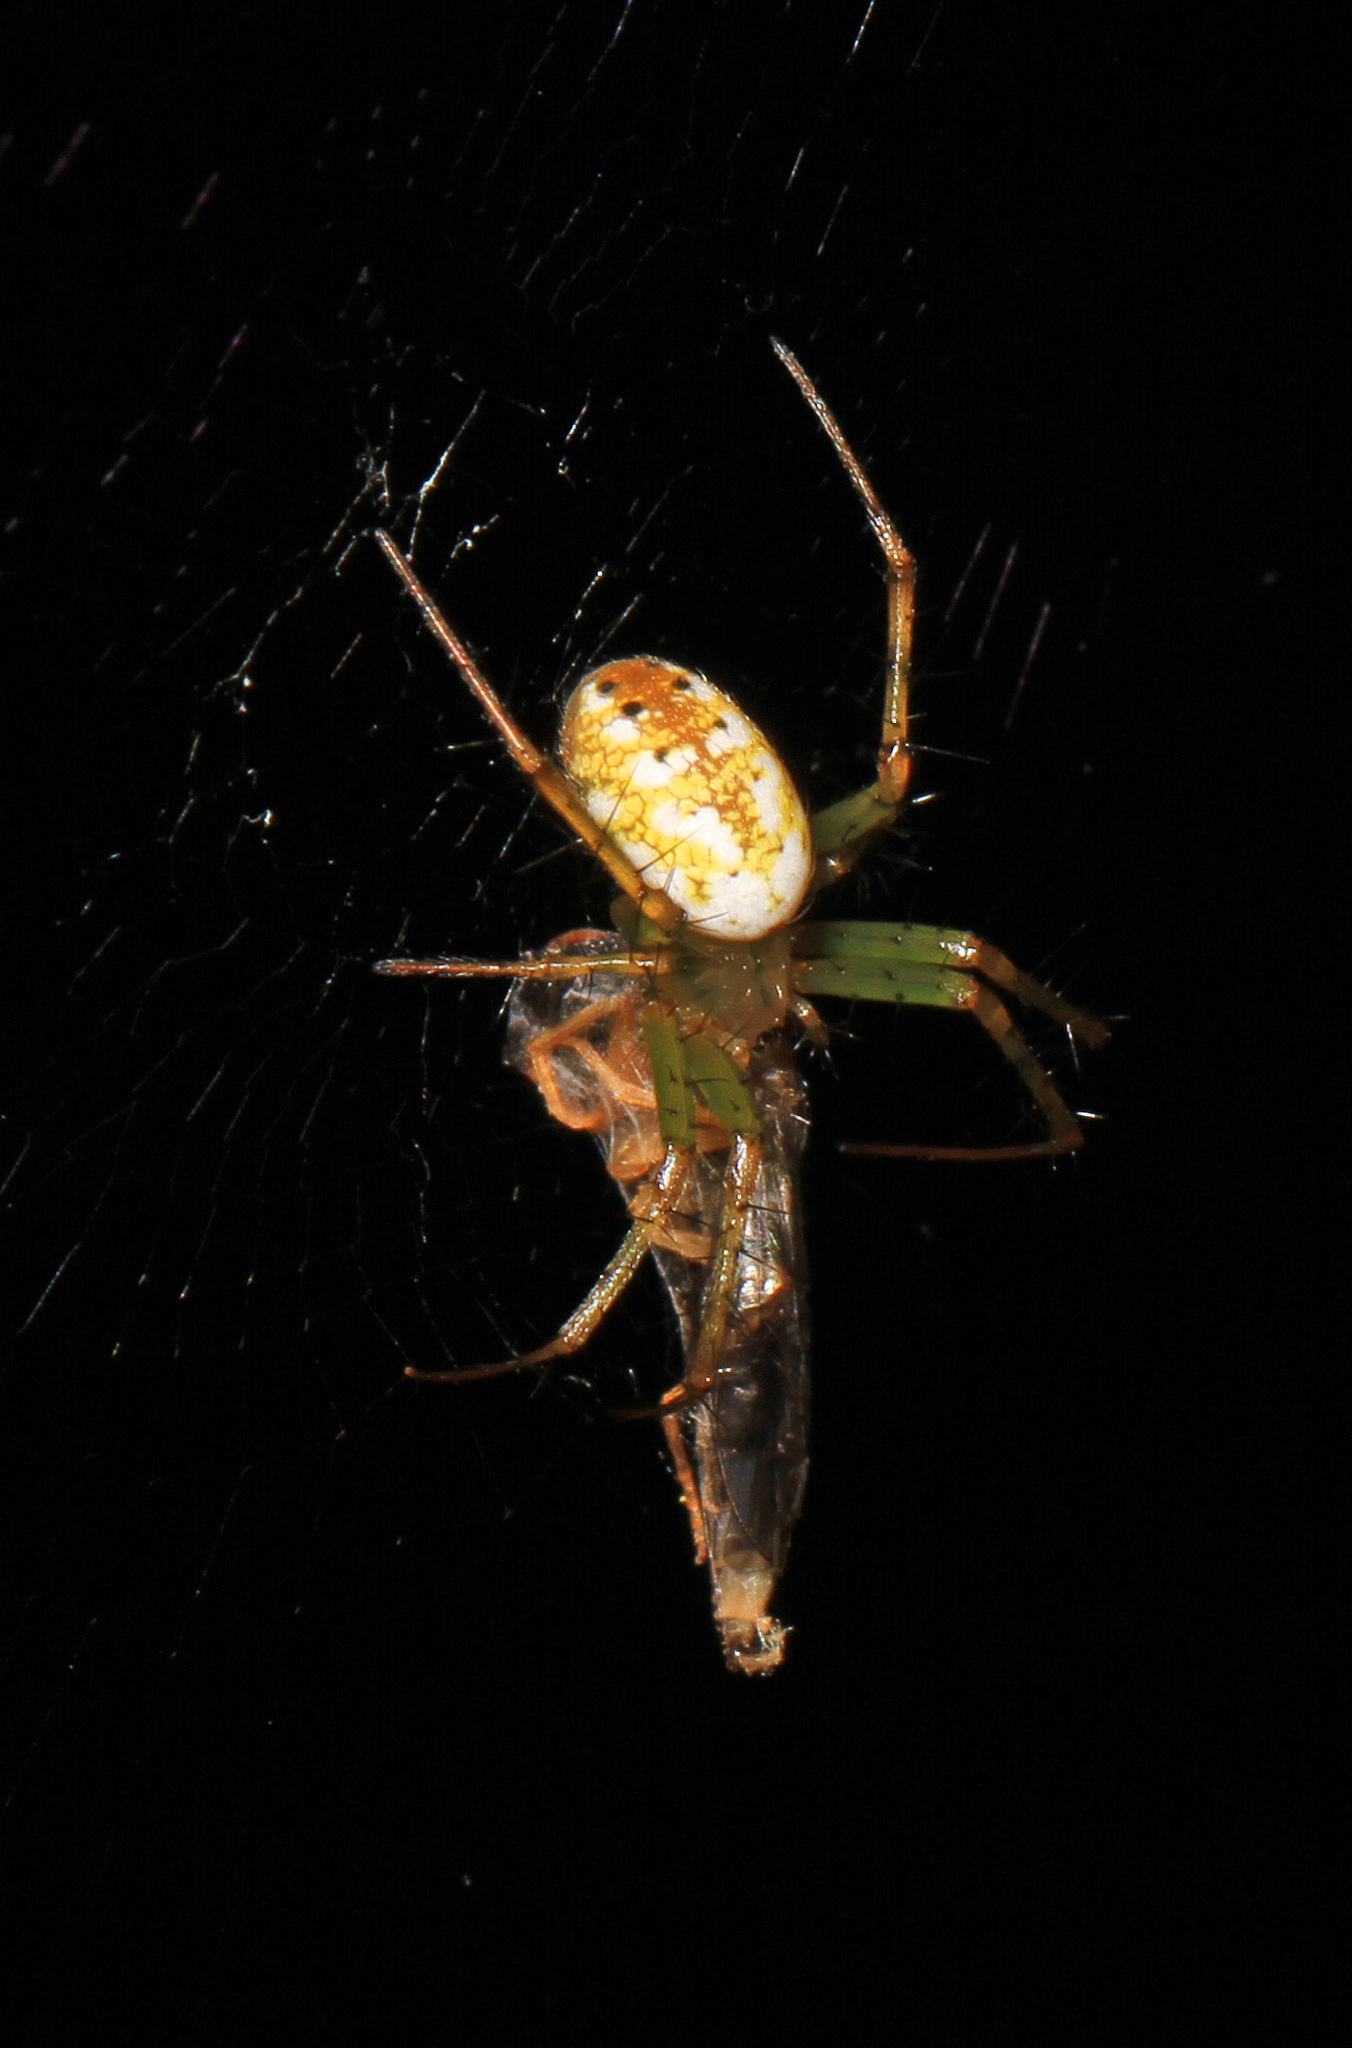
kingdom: Animalia
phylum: Arthropoda
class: Arachnida
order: Araneae
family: Araneidae
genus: Mangora
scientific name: Mangora maculata
